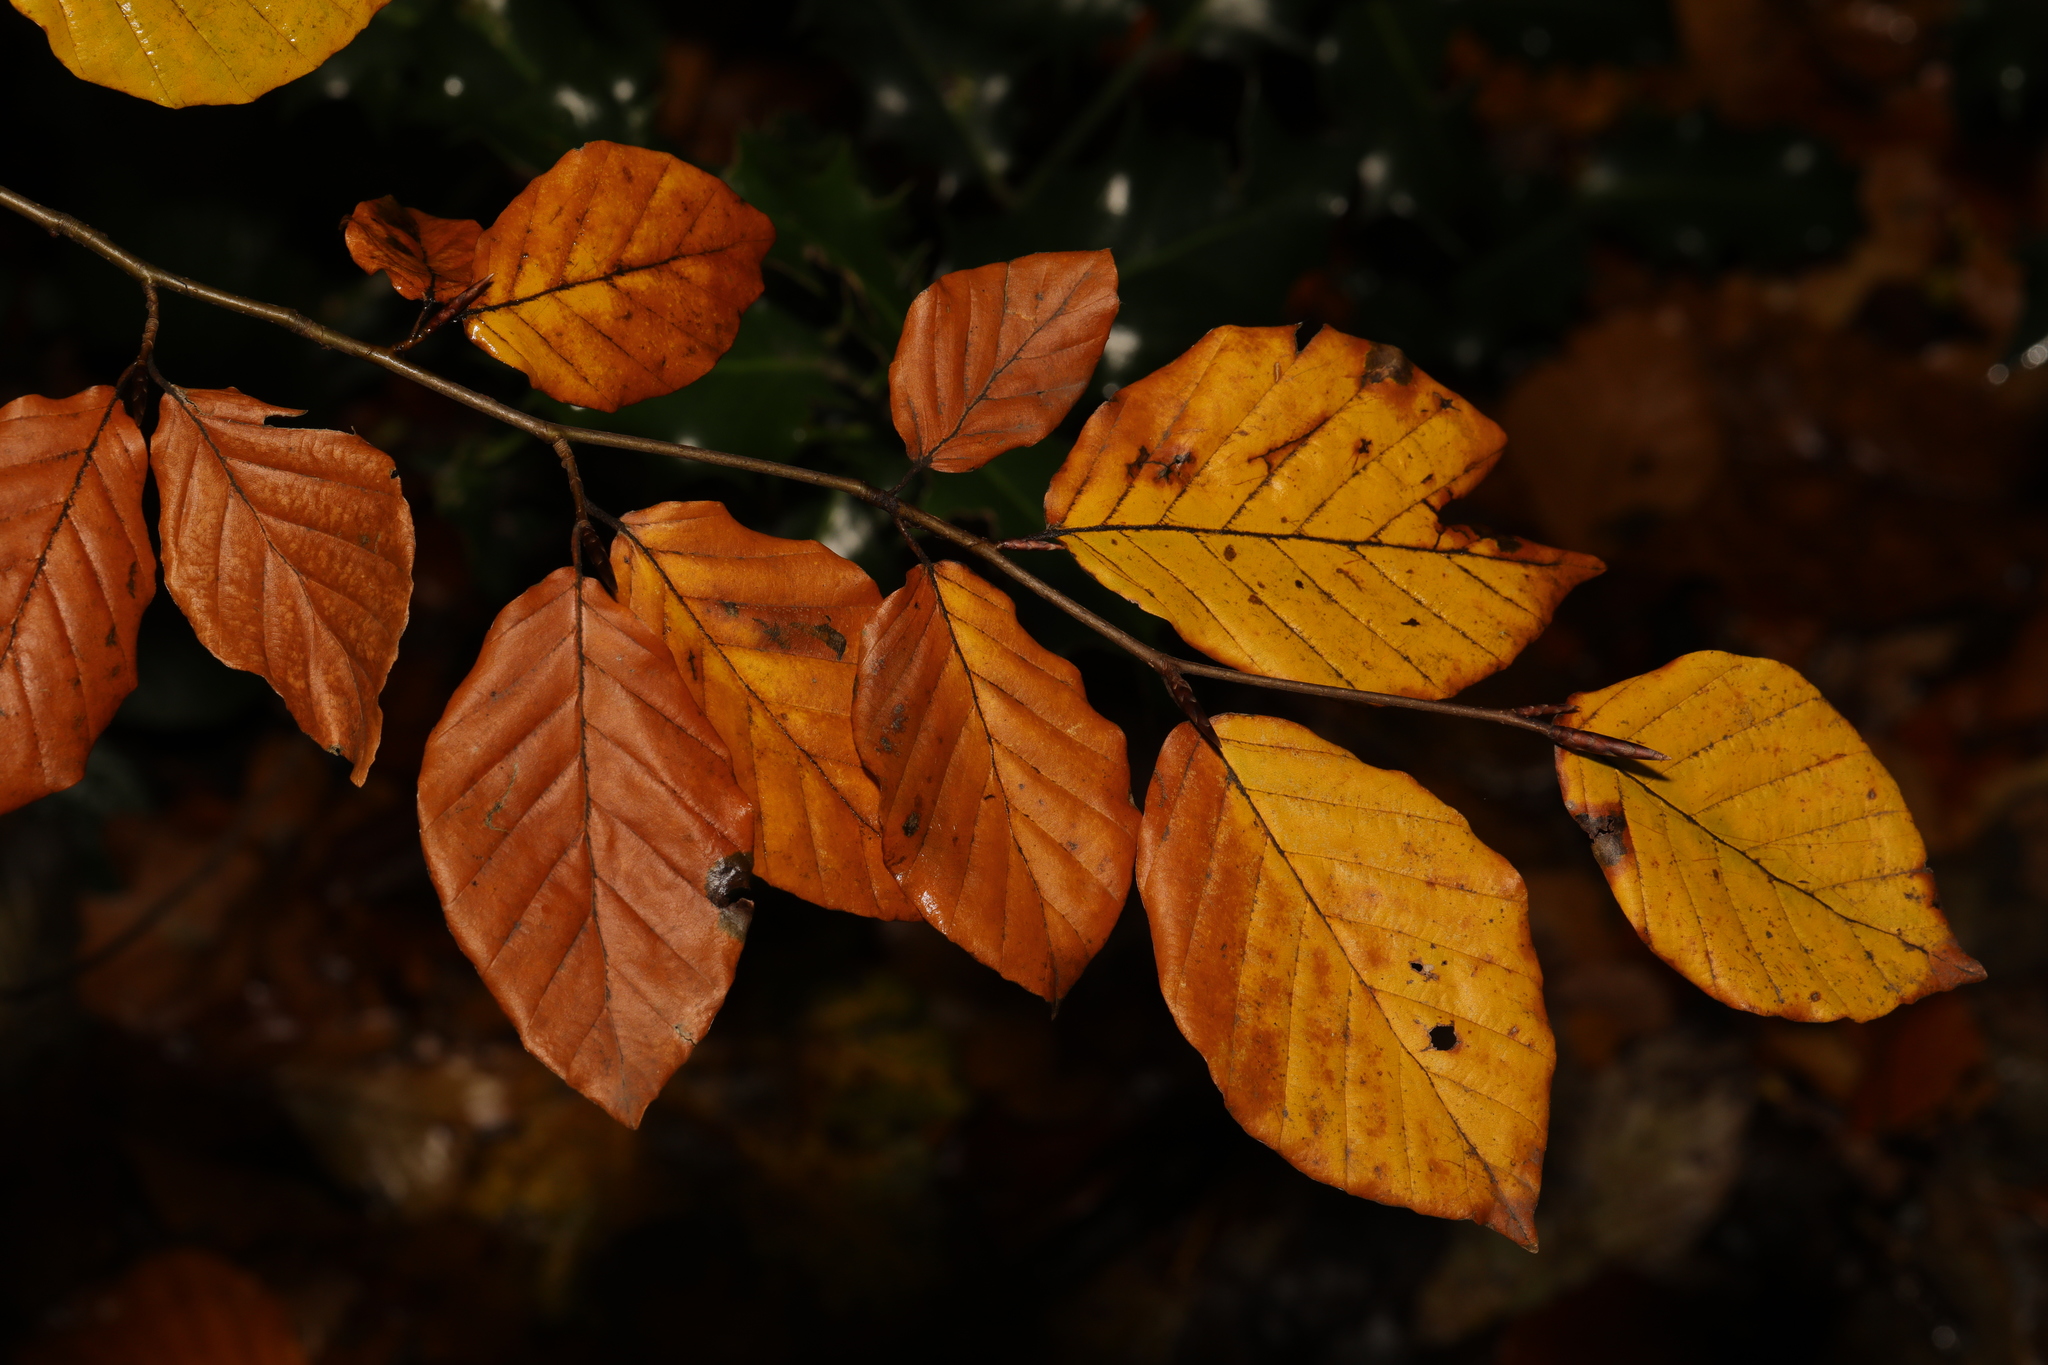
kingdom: Plantae
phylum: Tracheophyta
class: Magnoliopsida
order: Fagales
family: Fagaceae
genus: Fagus
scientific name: Fagus sylvatica
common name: Beech
